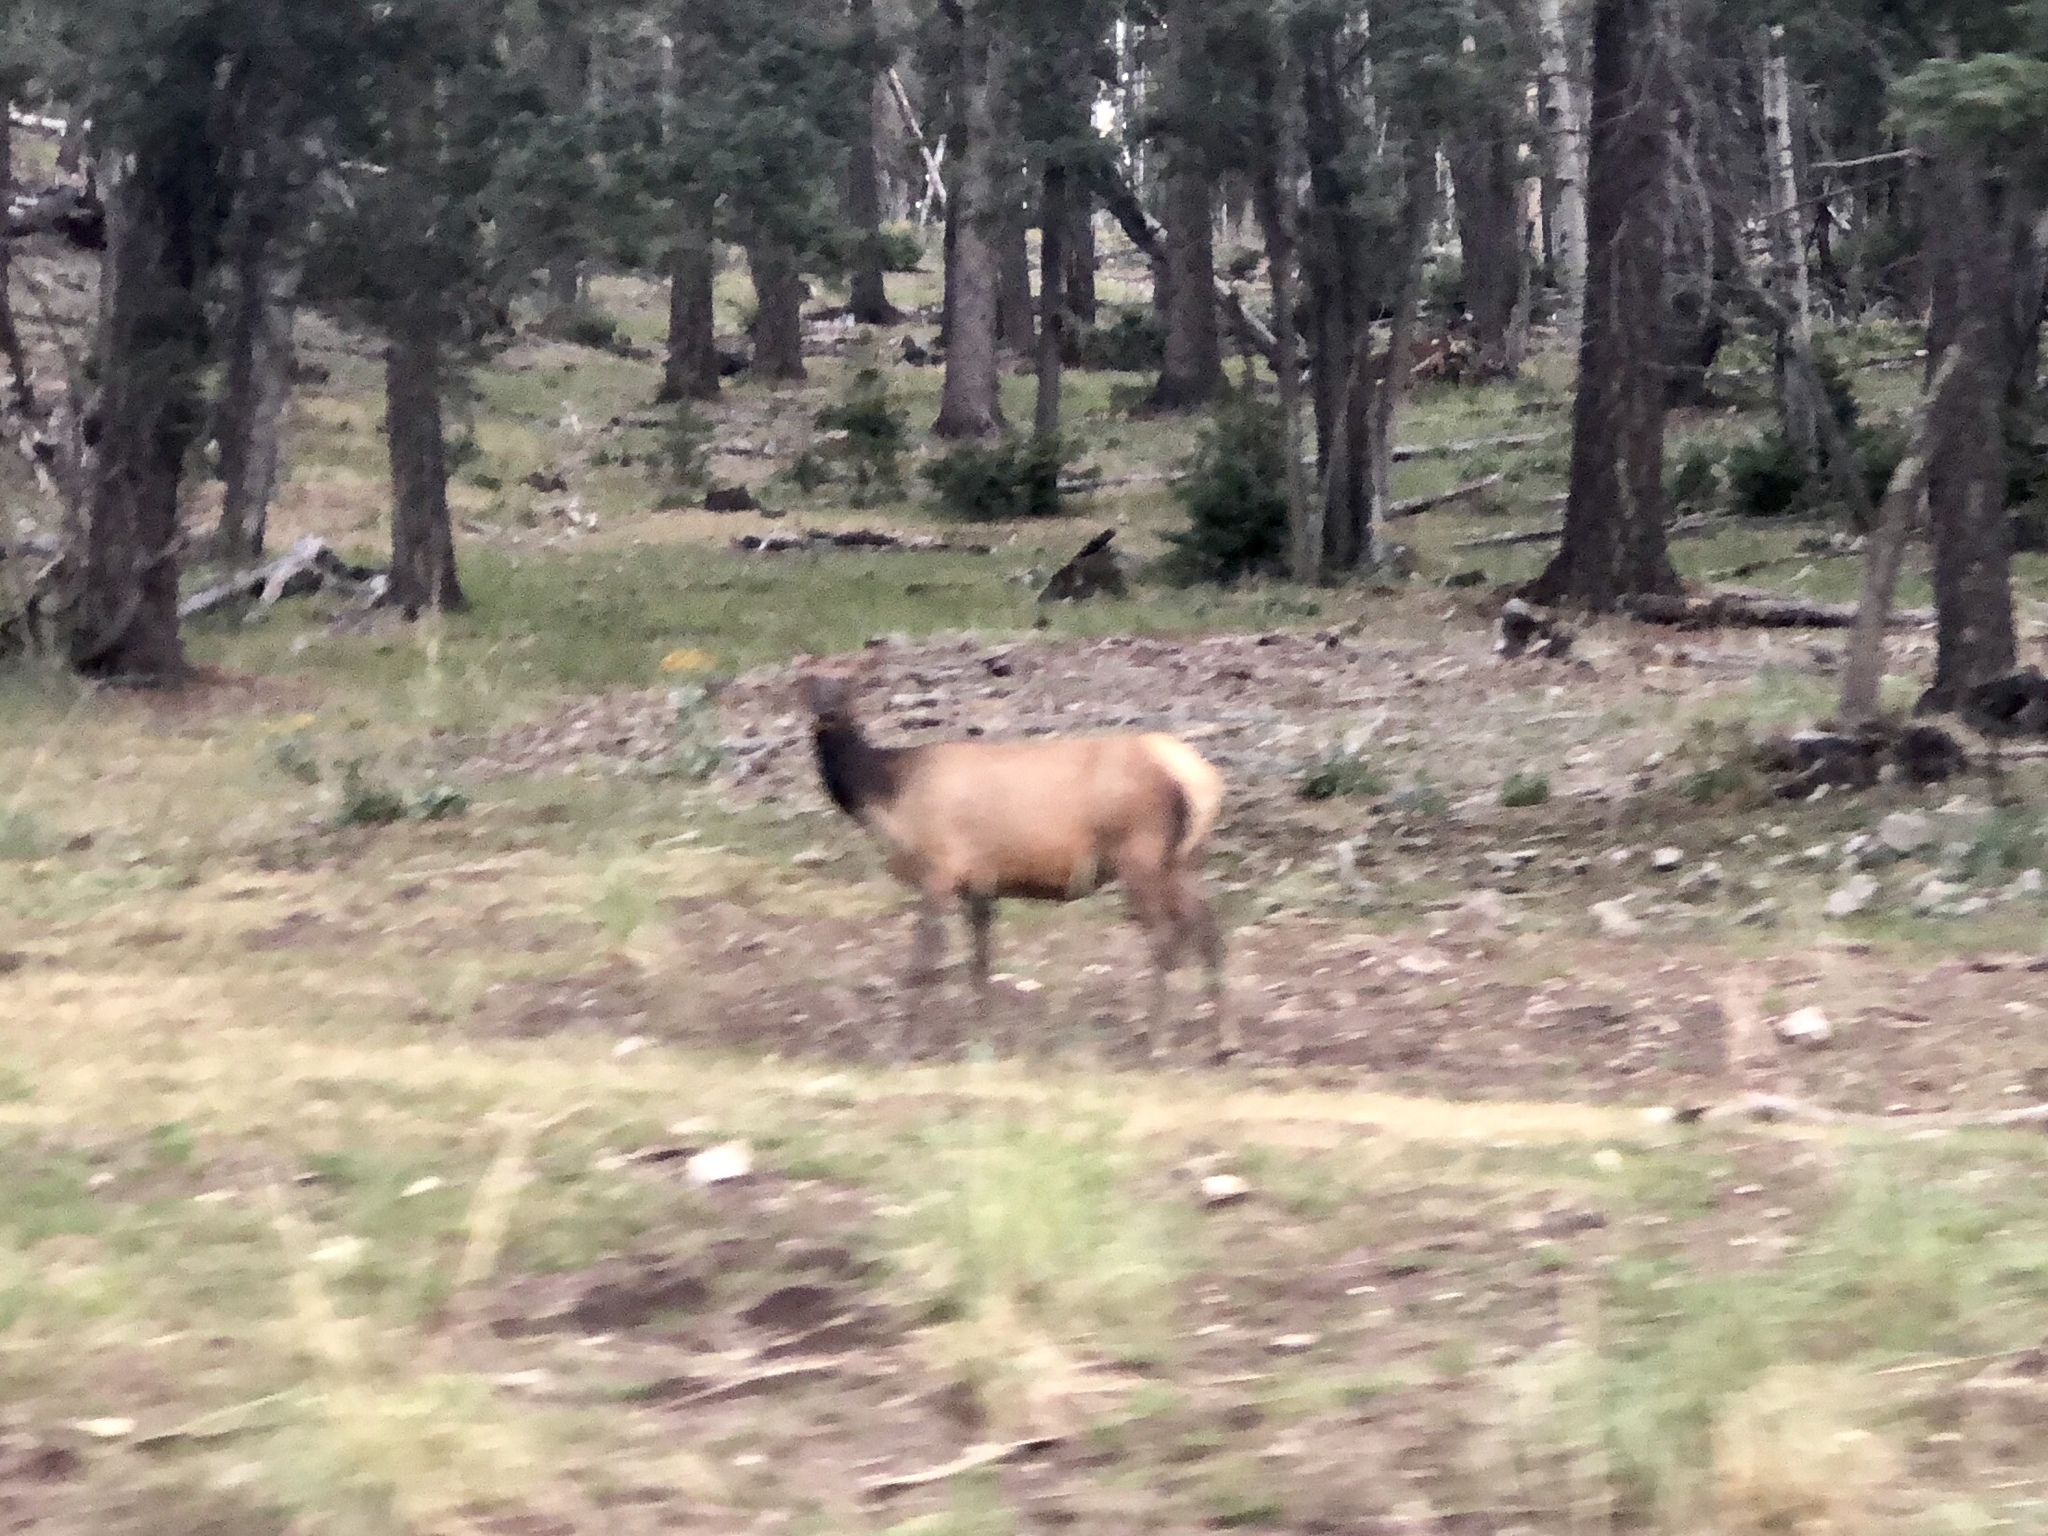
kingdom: Animalia
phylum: Chordata
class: Mammalia
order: Artiodactyla
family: Cervidae
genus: Cervus
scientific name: Cervus elaphus
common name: Red deer
